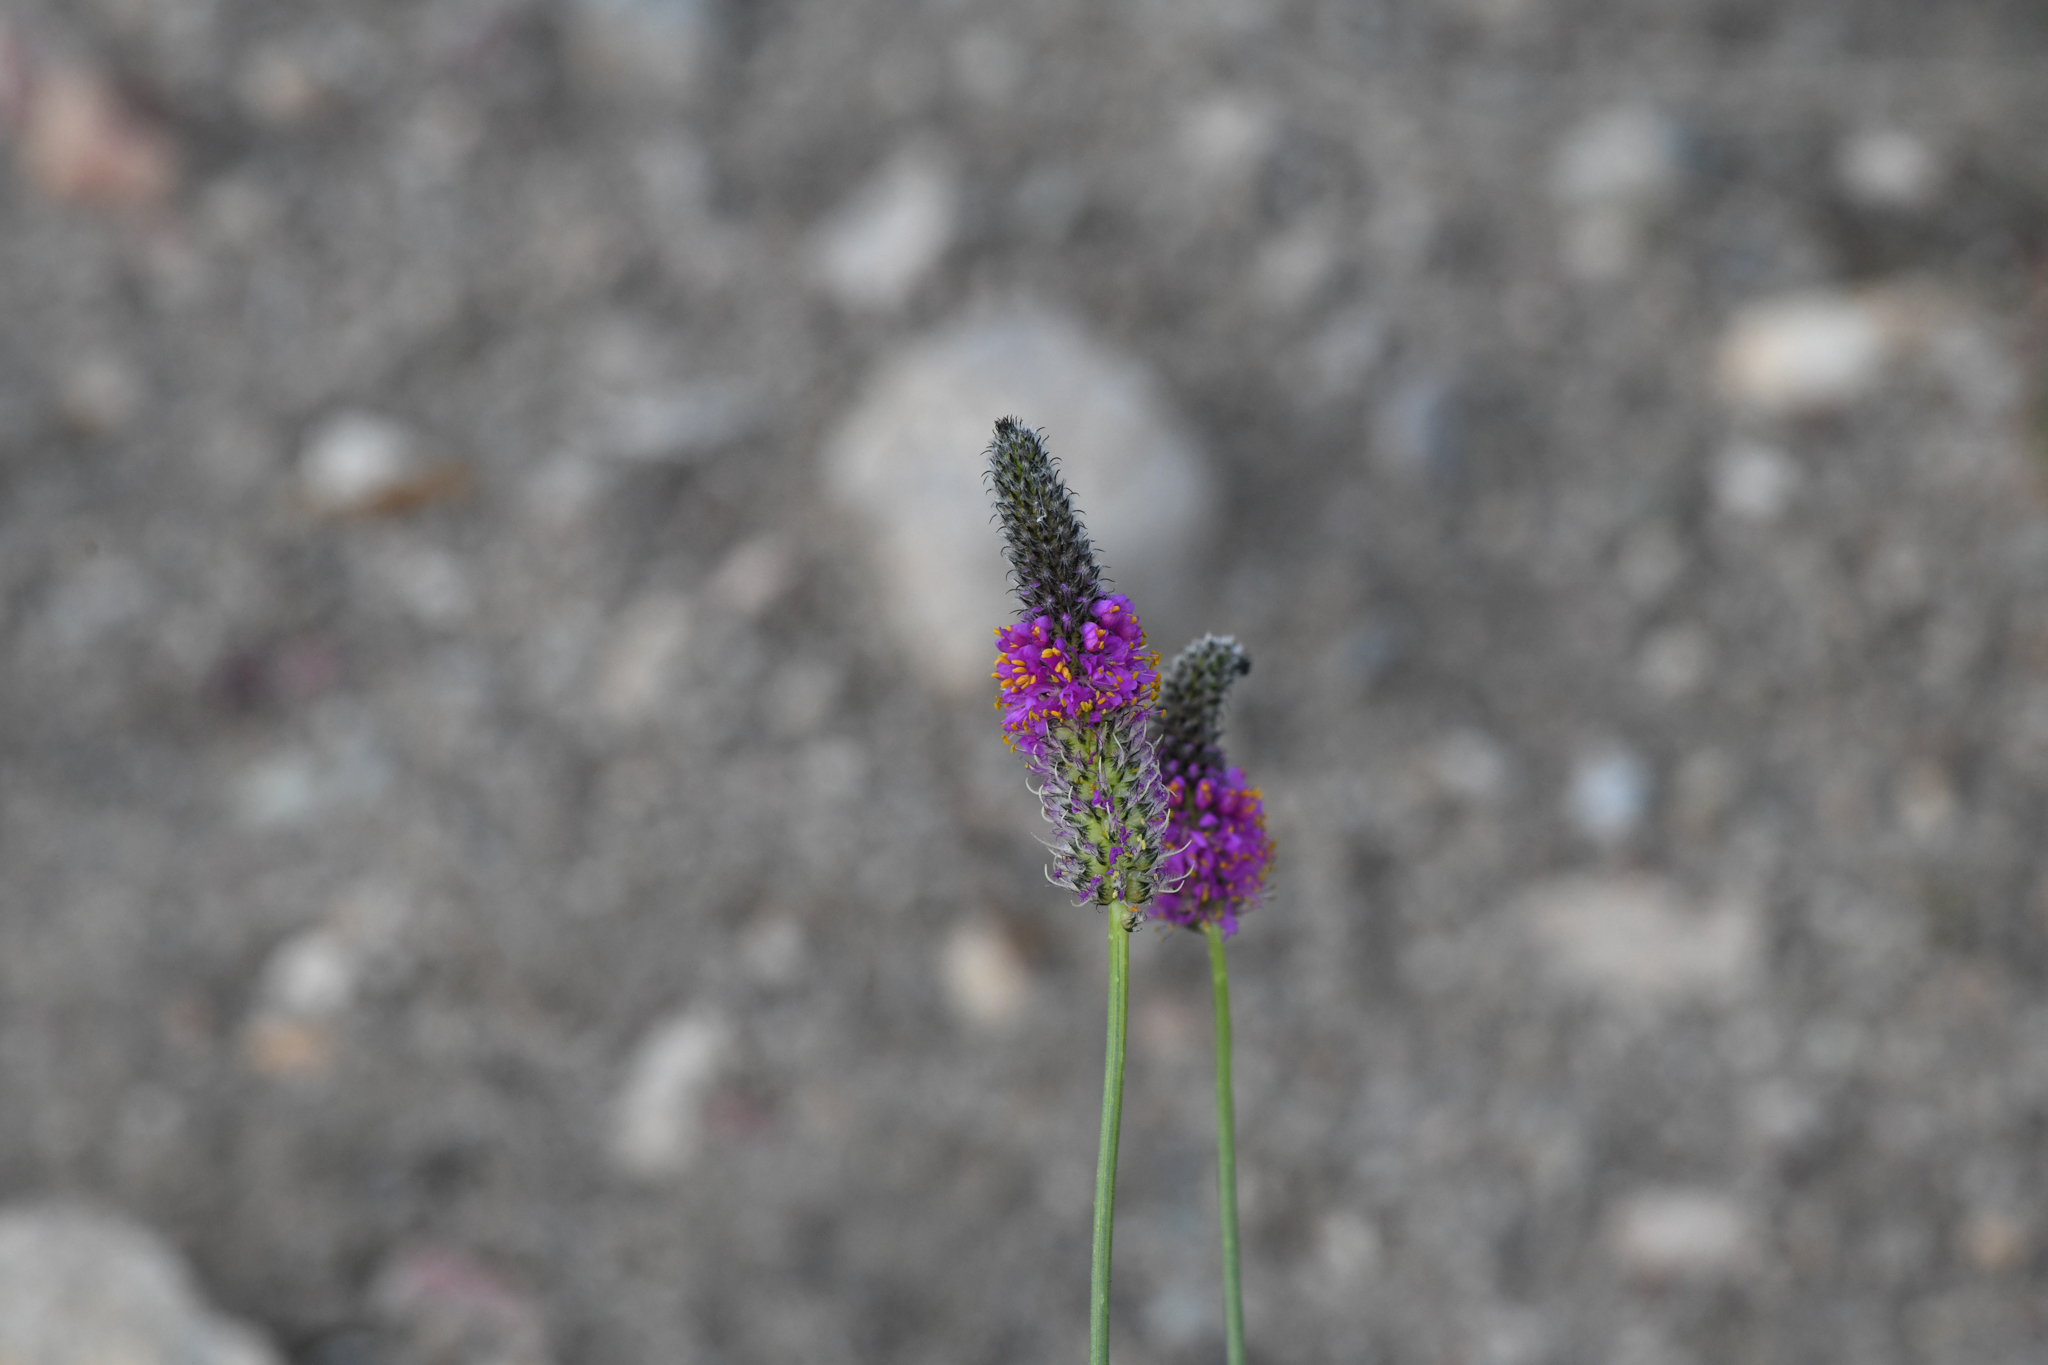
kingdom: Plantae
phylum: Tracheophyta
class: Magnoliopsida
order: Fabales
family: Fabaceae
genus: Dalea
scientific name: Dalea searlsiae
